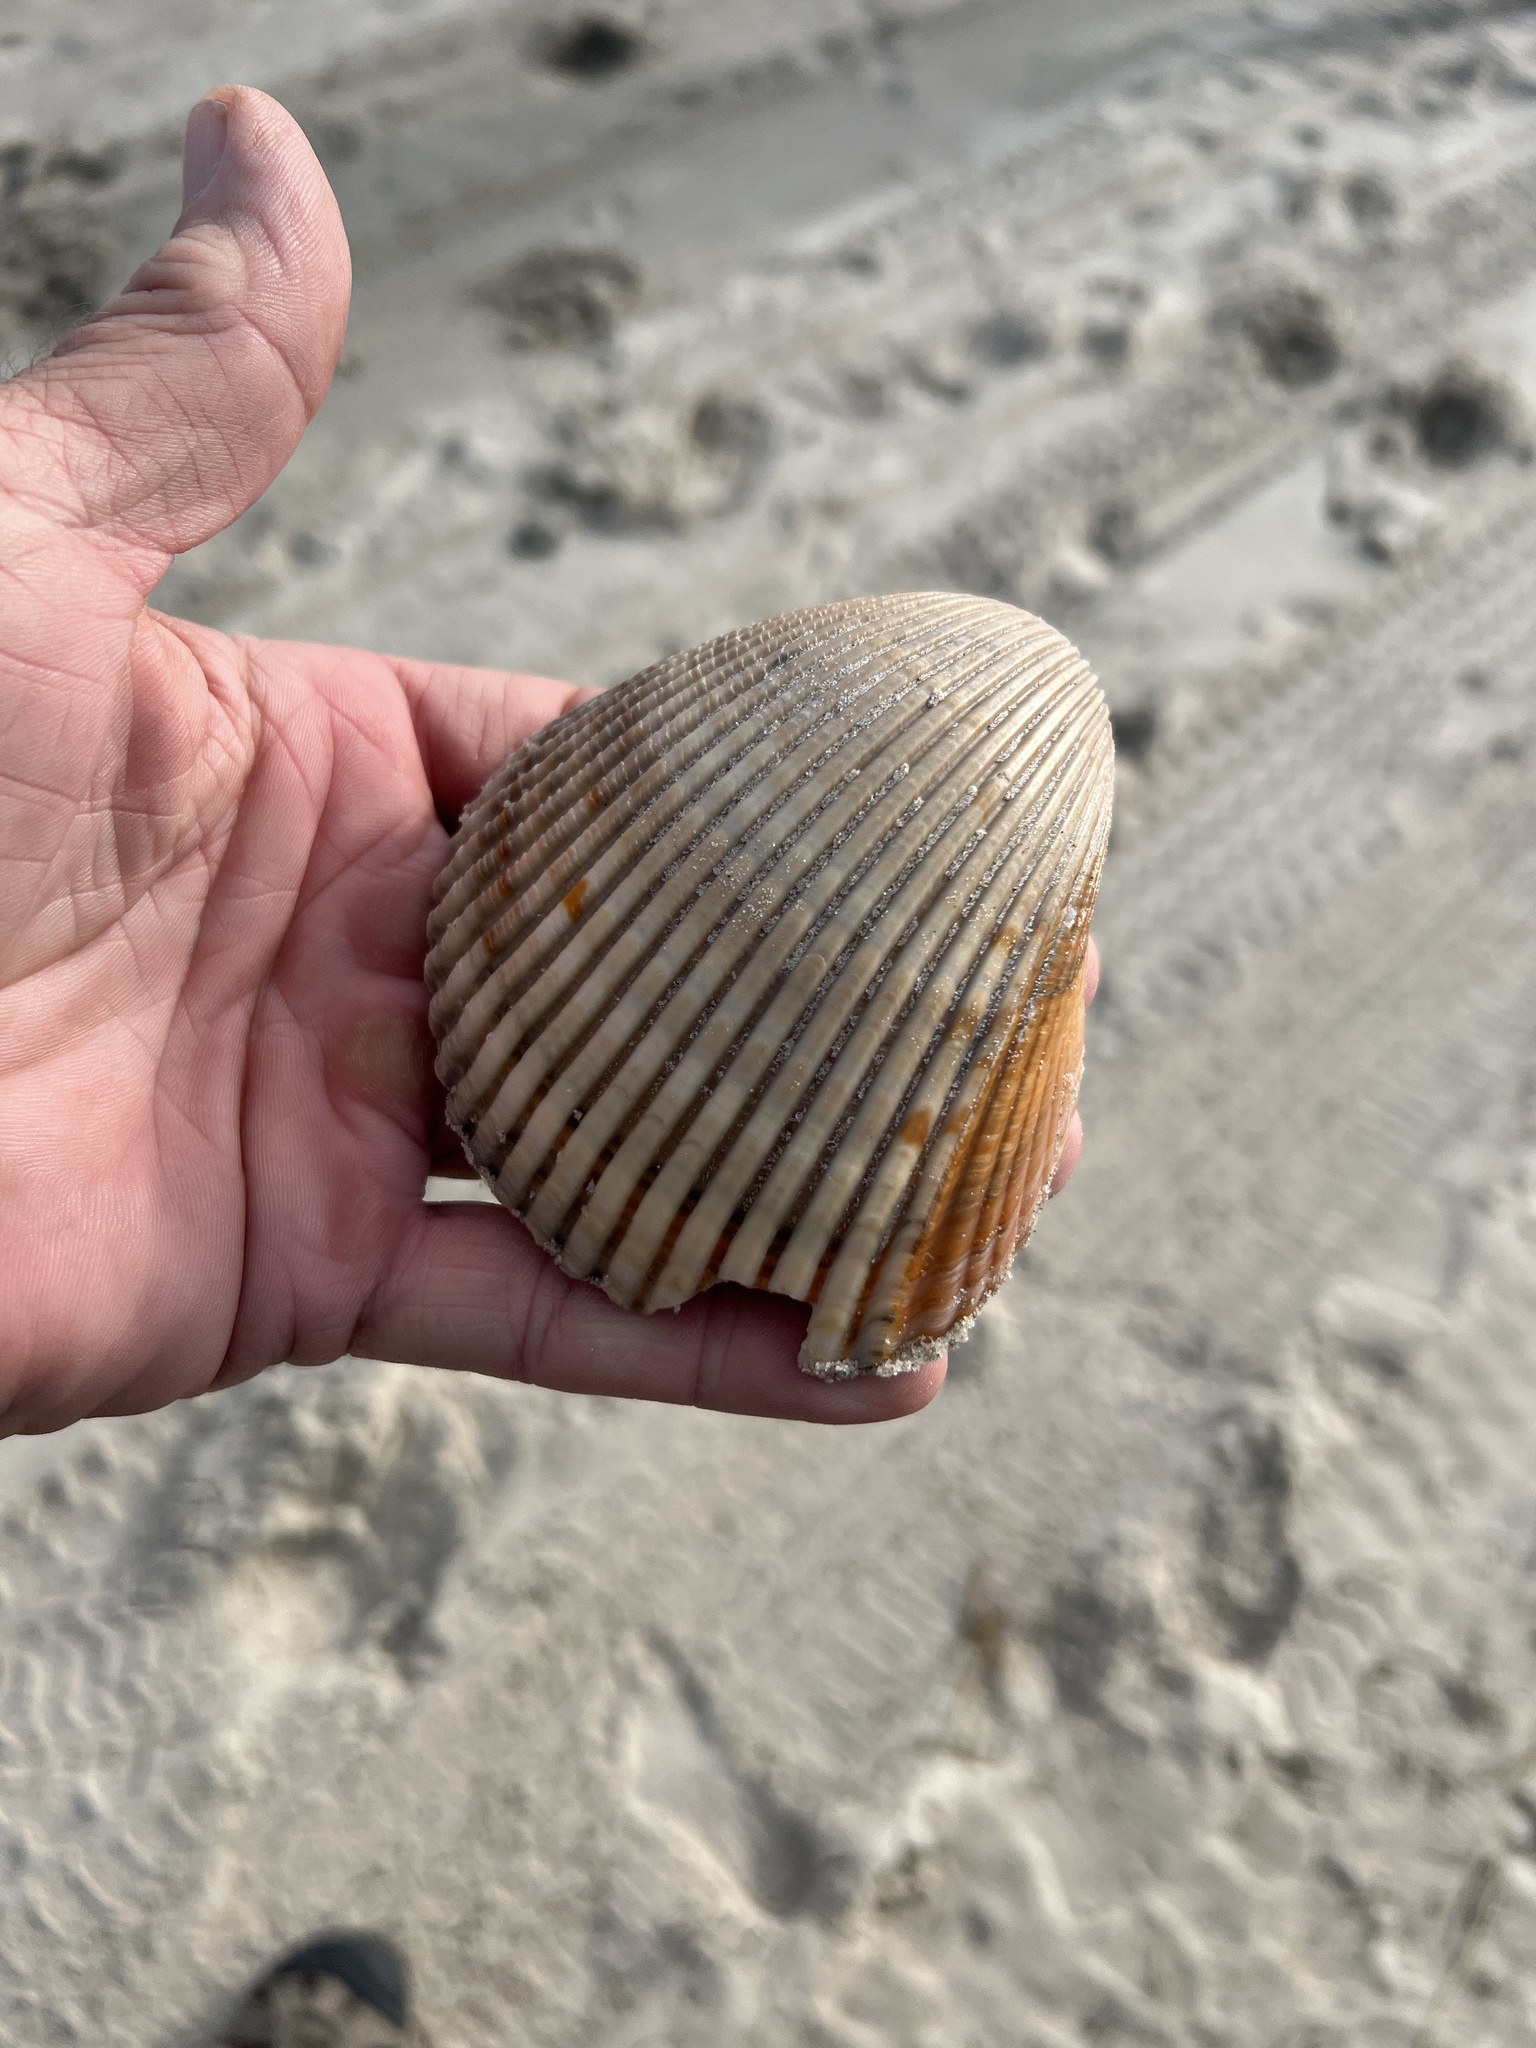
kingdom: Animalia
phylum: Mollusca
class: Bivalvia
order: Cardiida
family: Cardiidae
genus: Dinocardium
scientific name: Dinocardium robustum
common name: Atlantic giant cockle
